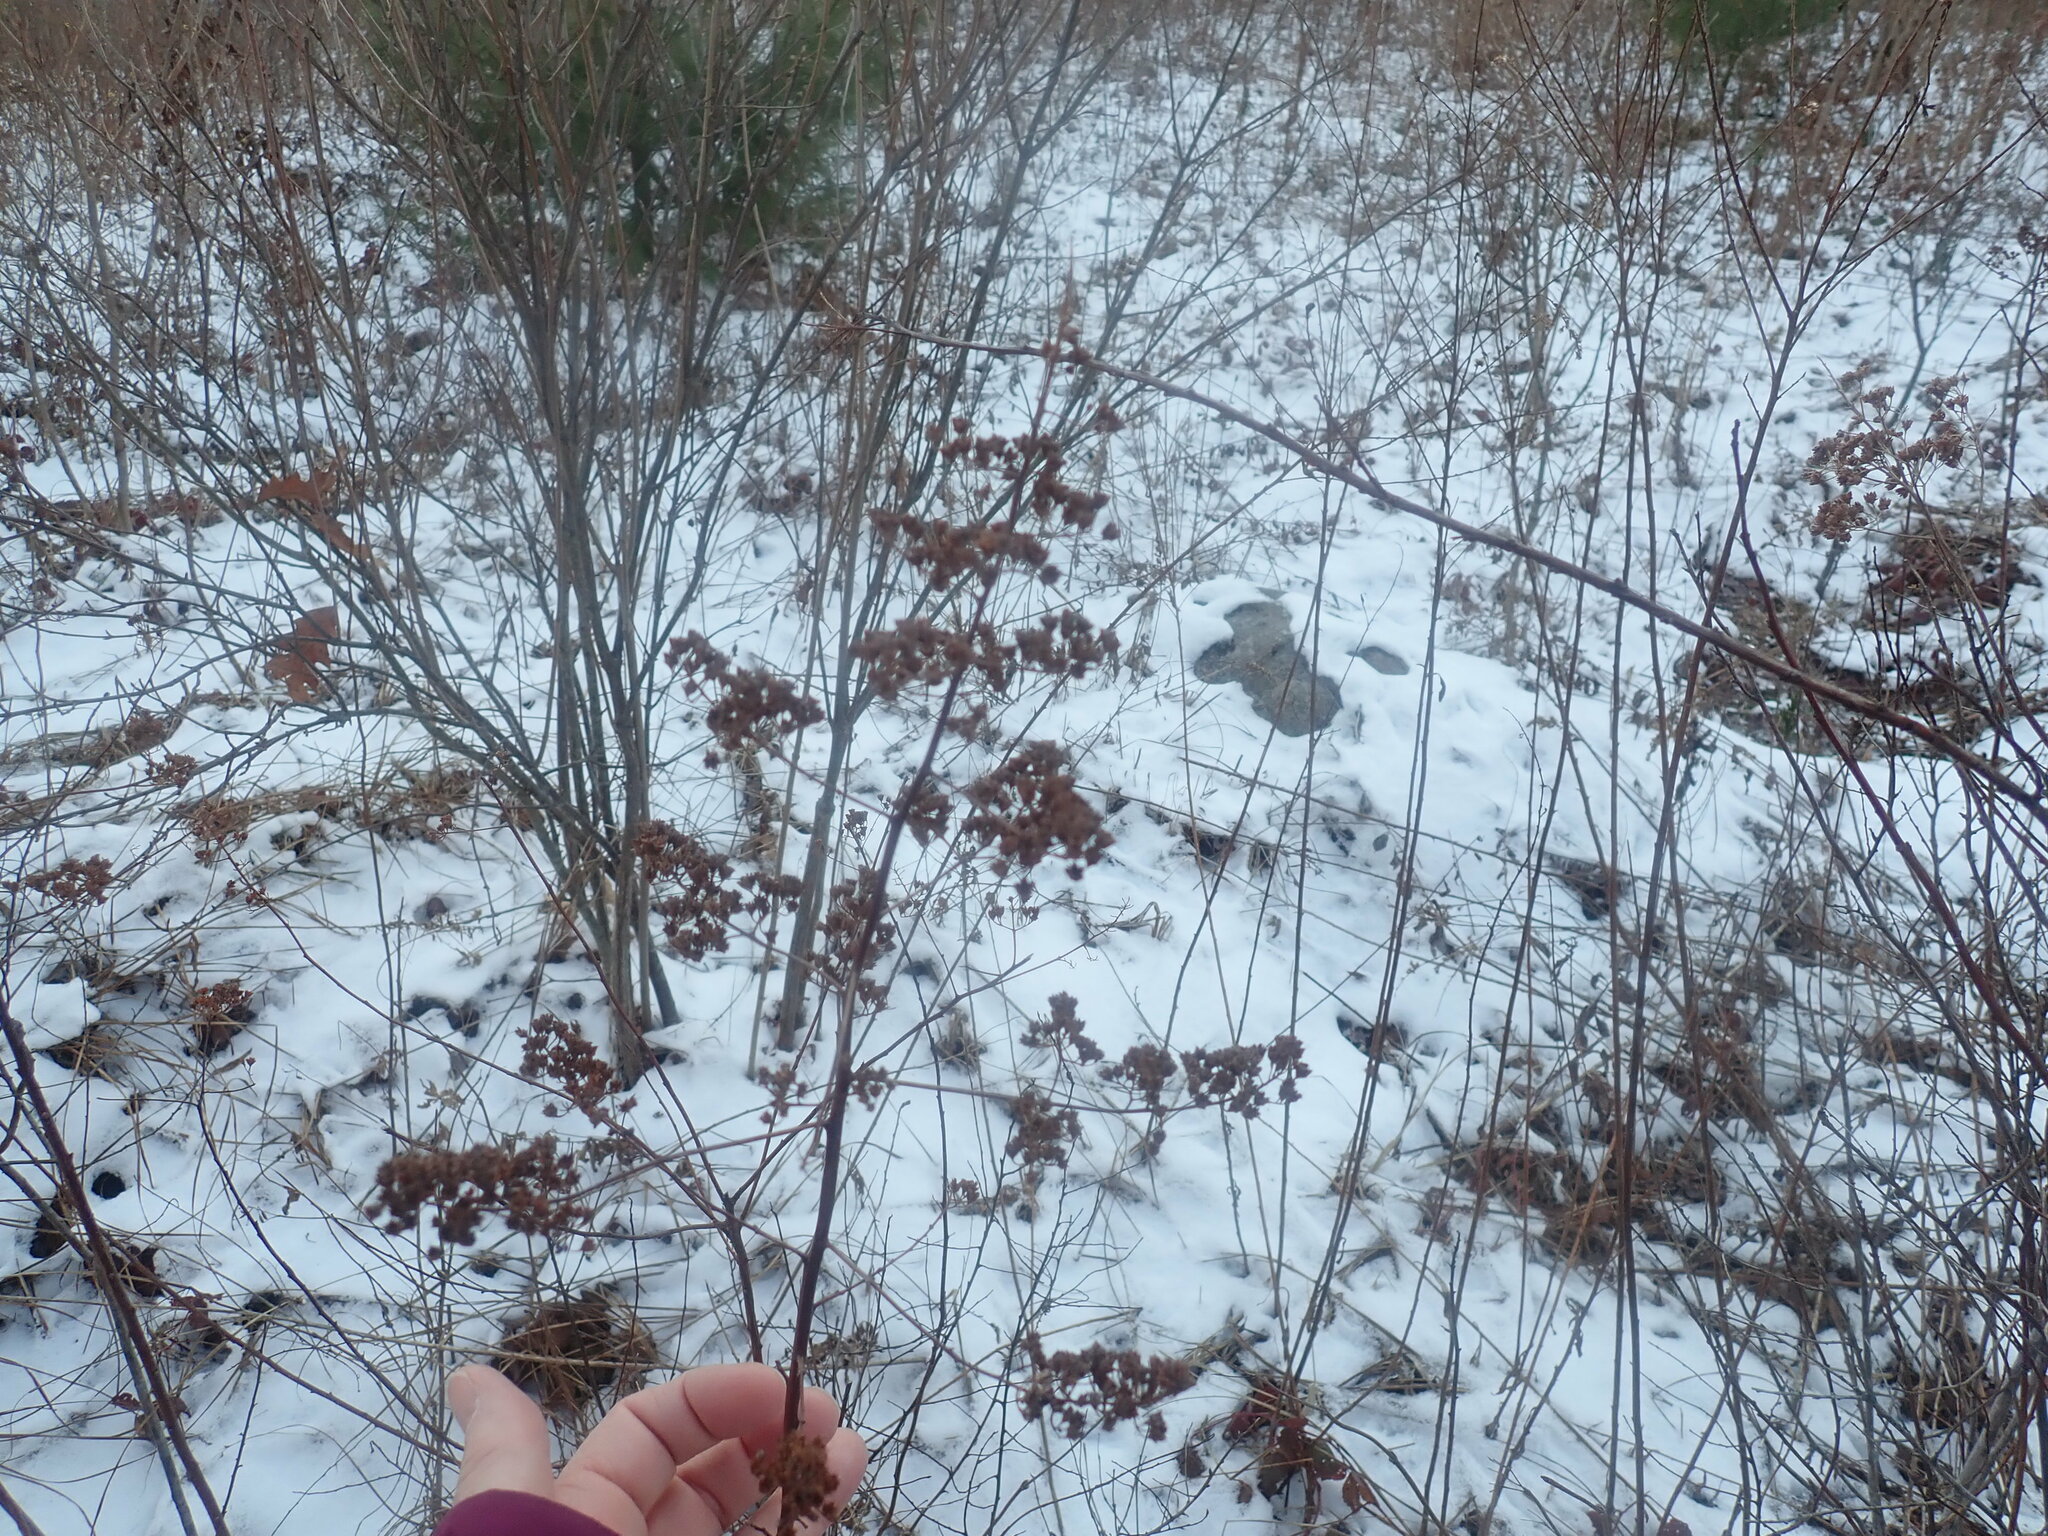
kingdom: Plantae
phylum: Tracheophyta
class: Magnoliopsida
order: Rosales
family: Rosaceae
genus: Spiraea
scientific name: Spiraea alba
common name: Pale bridewort
